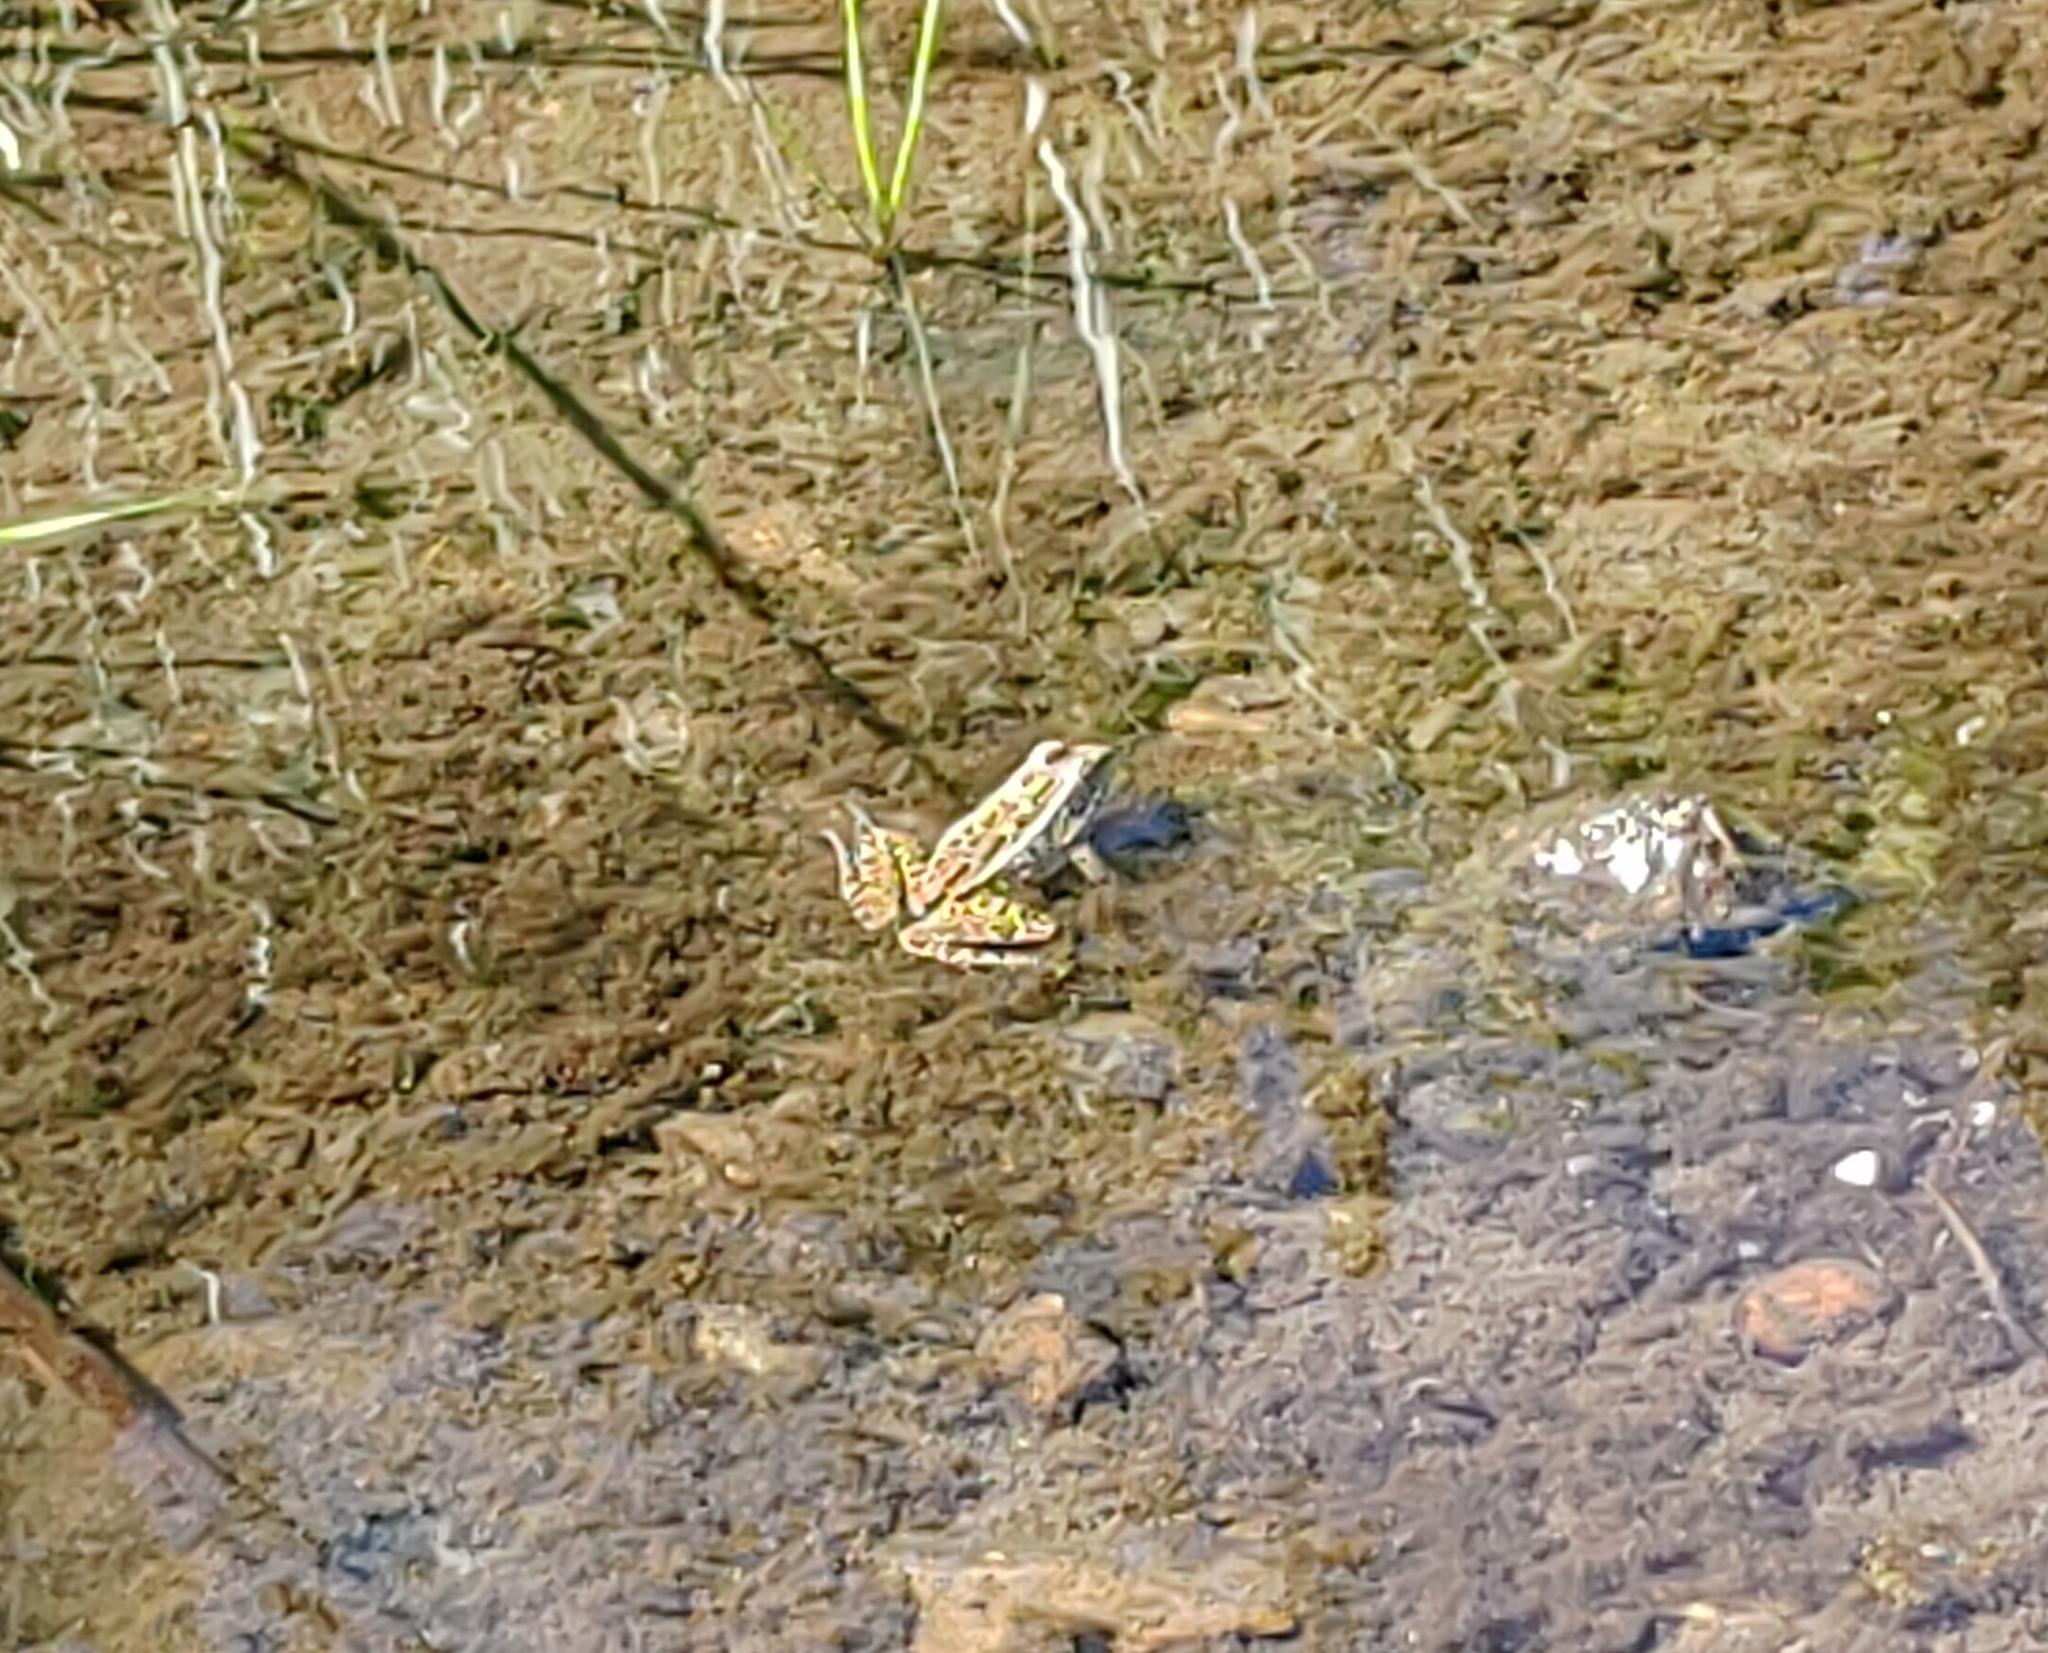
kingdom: Animalia
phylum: Chordata
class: Amphibia
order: Anura
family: Ranidae
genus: Lithobates
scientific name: Lithobates pipiens
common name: Northern leopard frog
